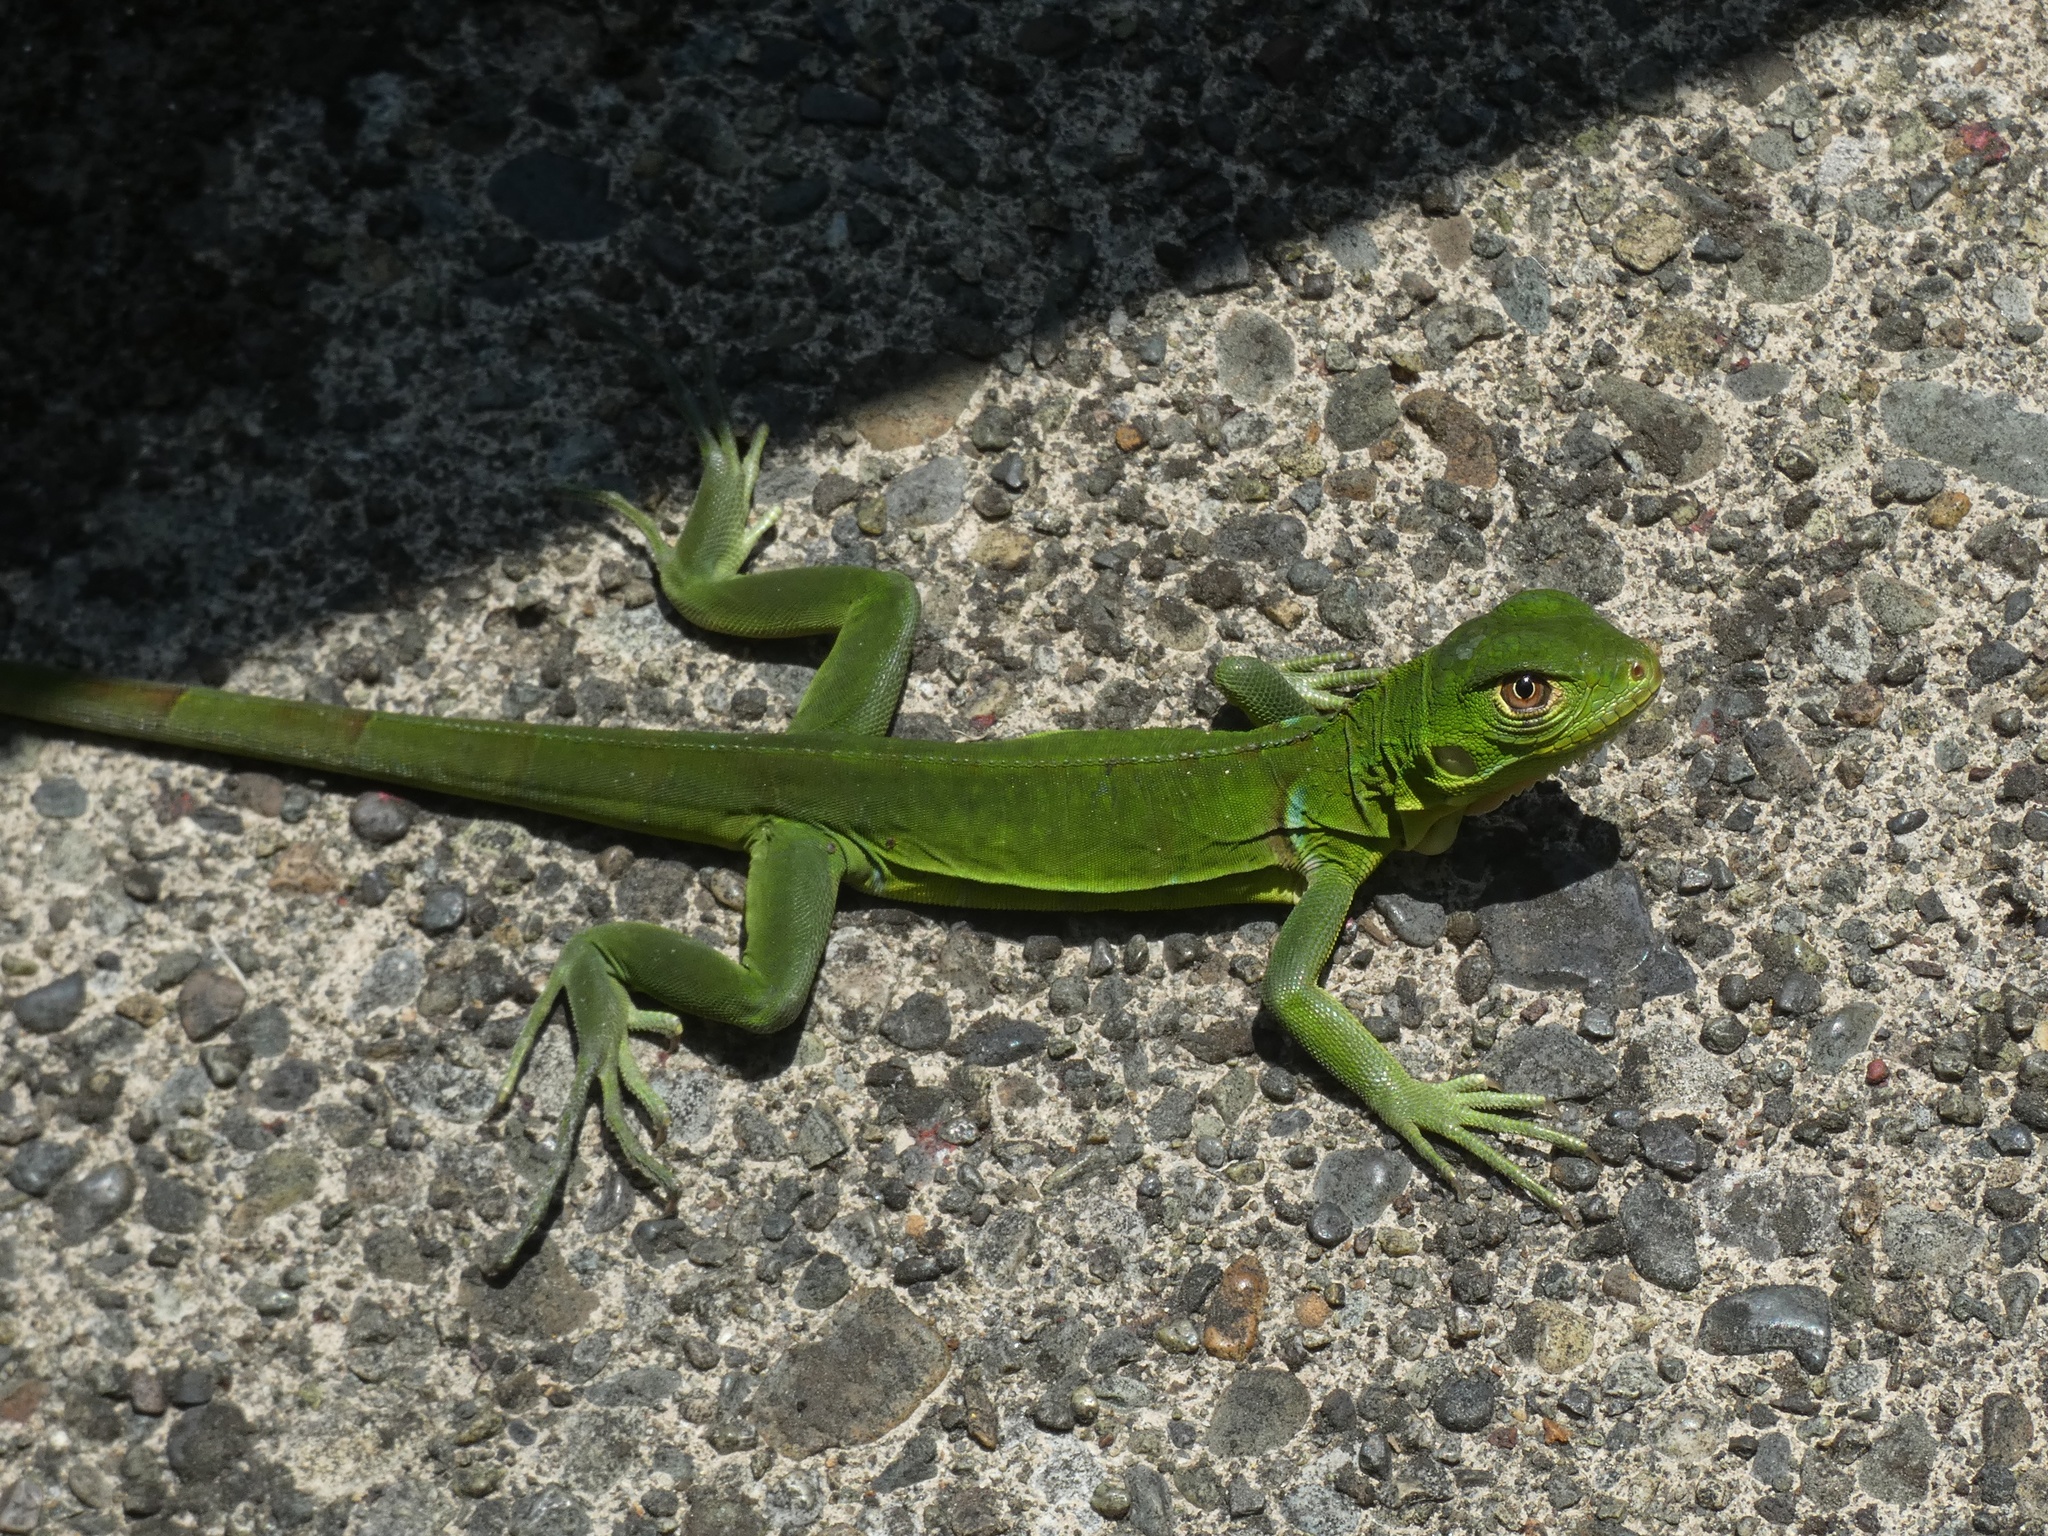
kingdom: Animalia
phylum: Chordata
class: Squamata
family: Iguanidae
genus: Iguana
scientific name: Iguana iguana
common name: Green iguana
